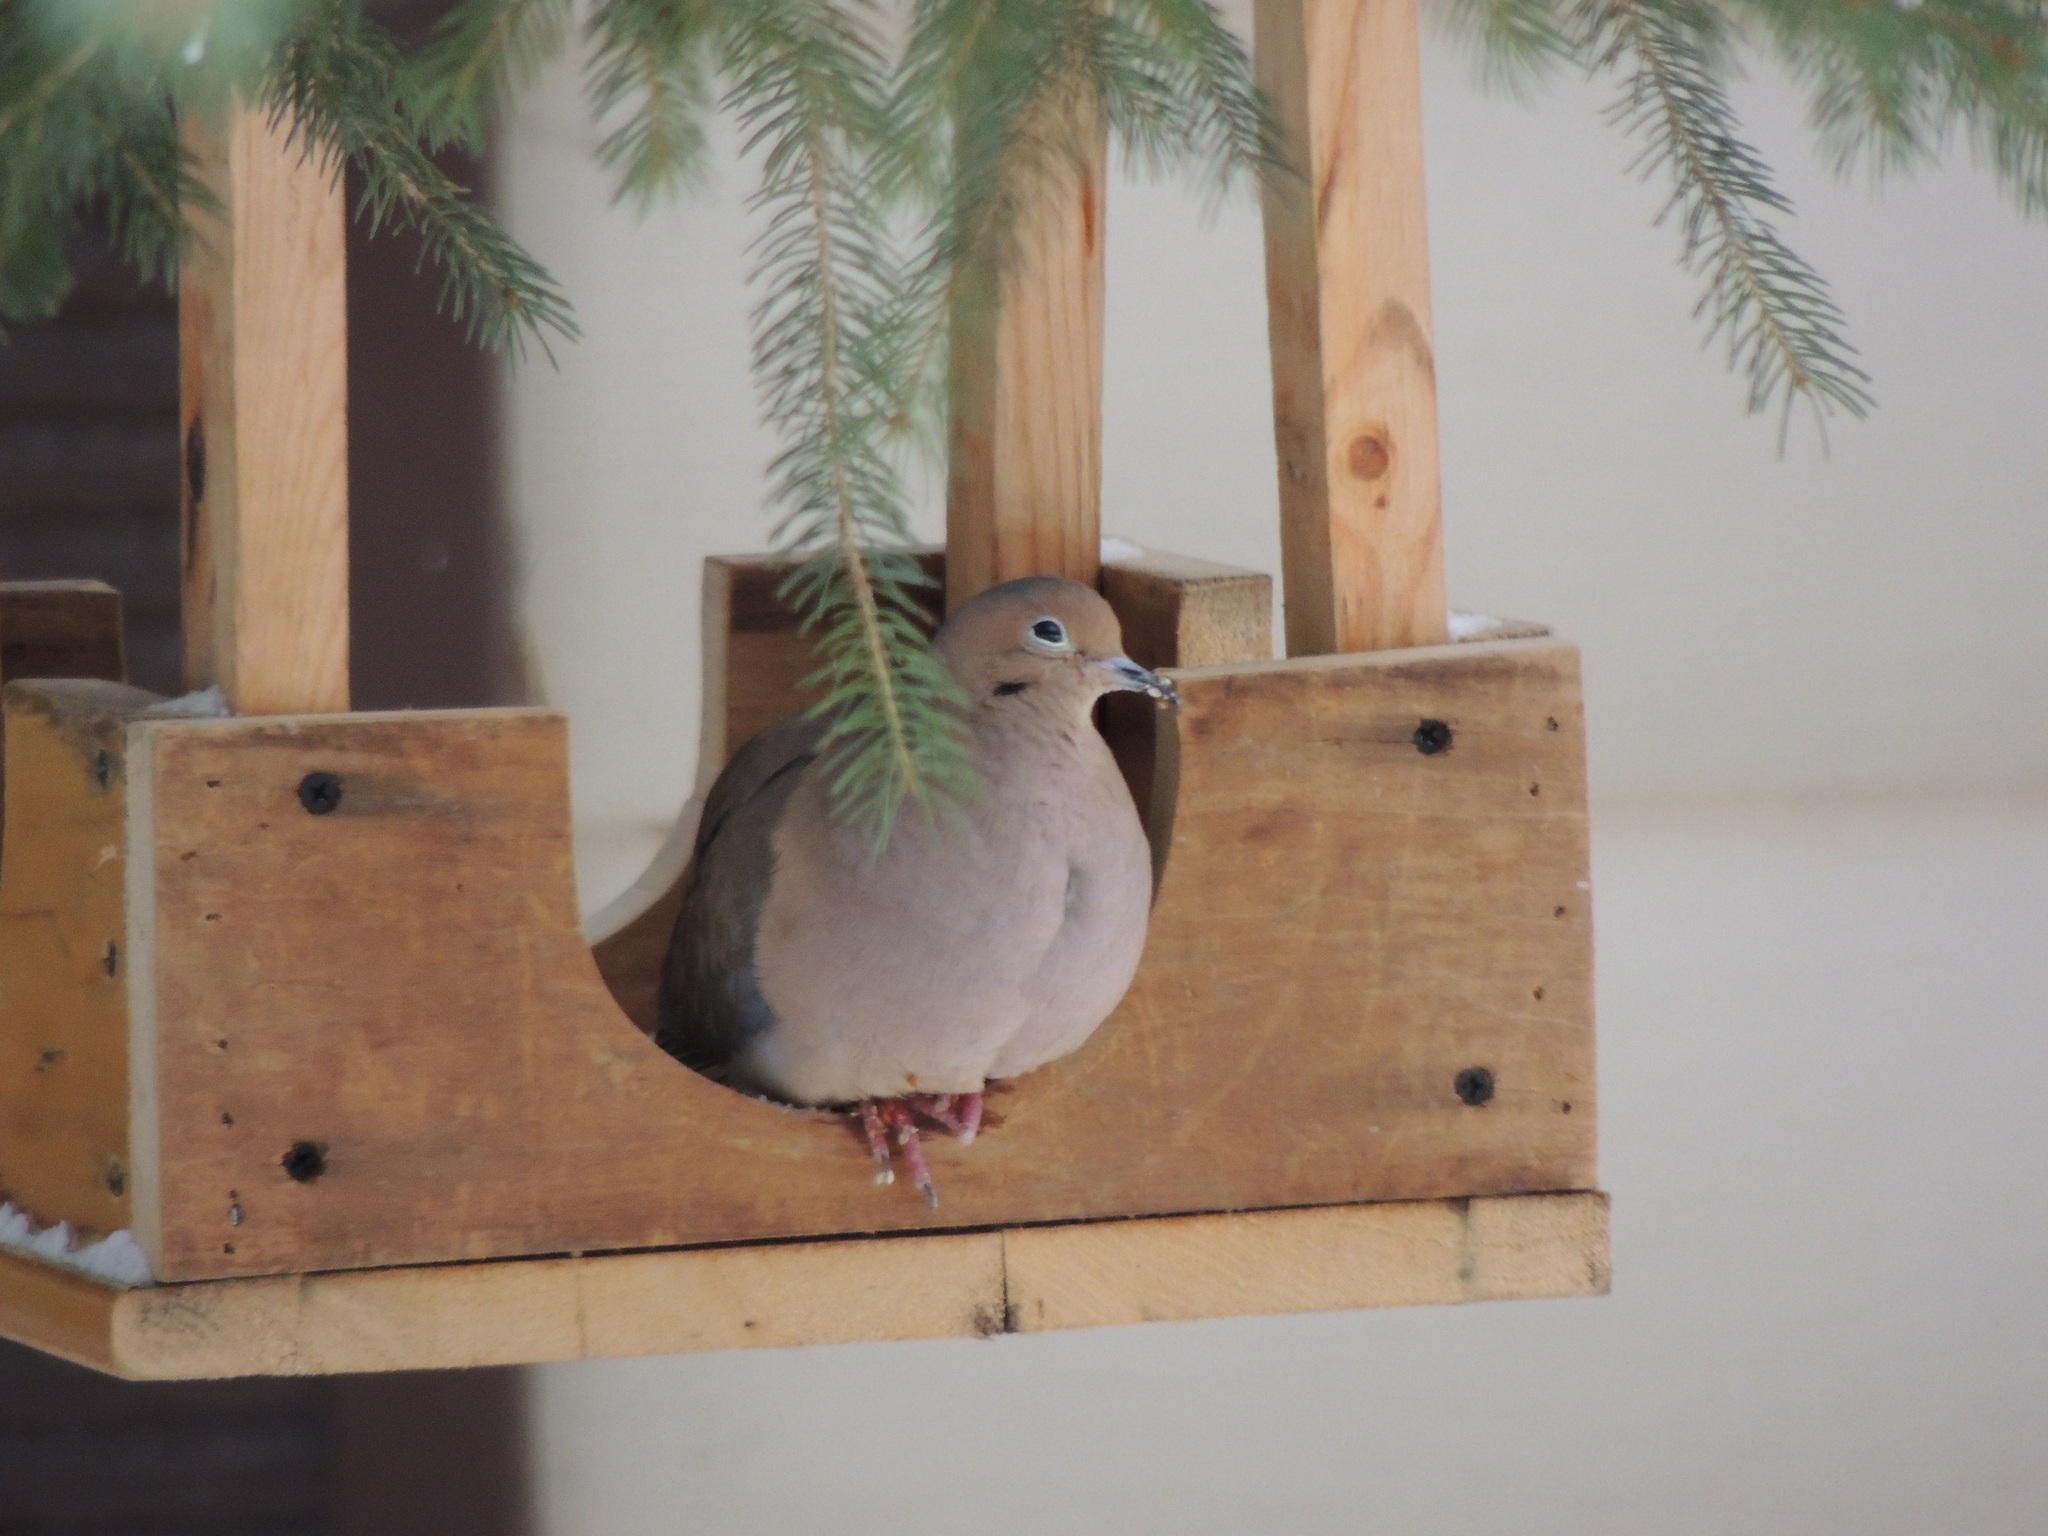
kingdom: Animalia
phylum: Chordata
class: Aves
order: Columbiformes
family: Columbidae
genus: Zenaida
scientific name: Zenaida macroura
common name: Mourning dove
